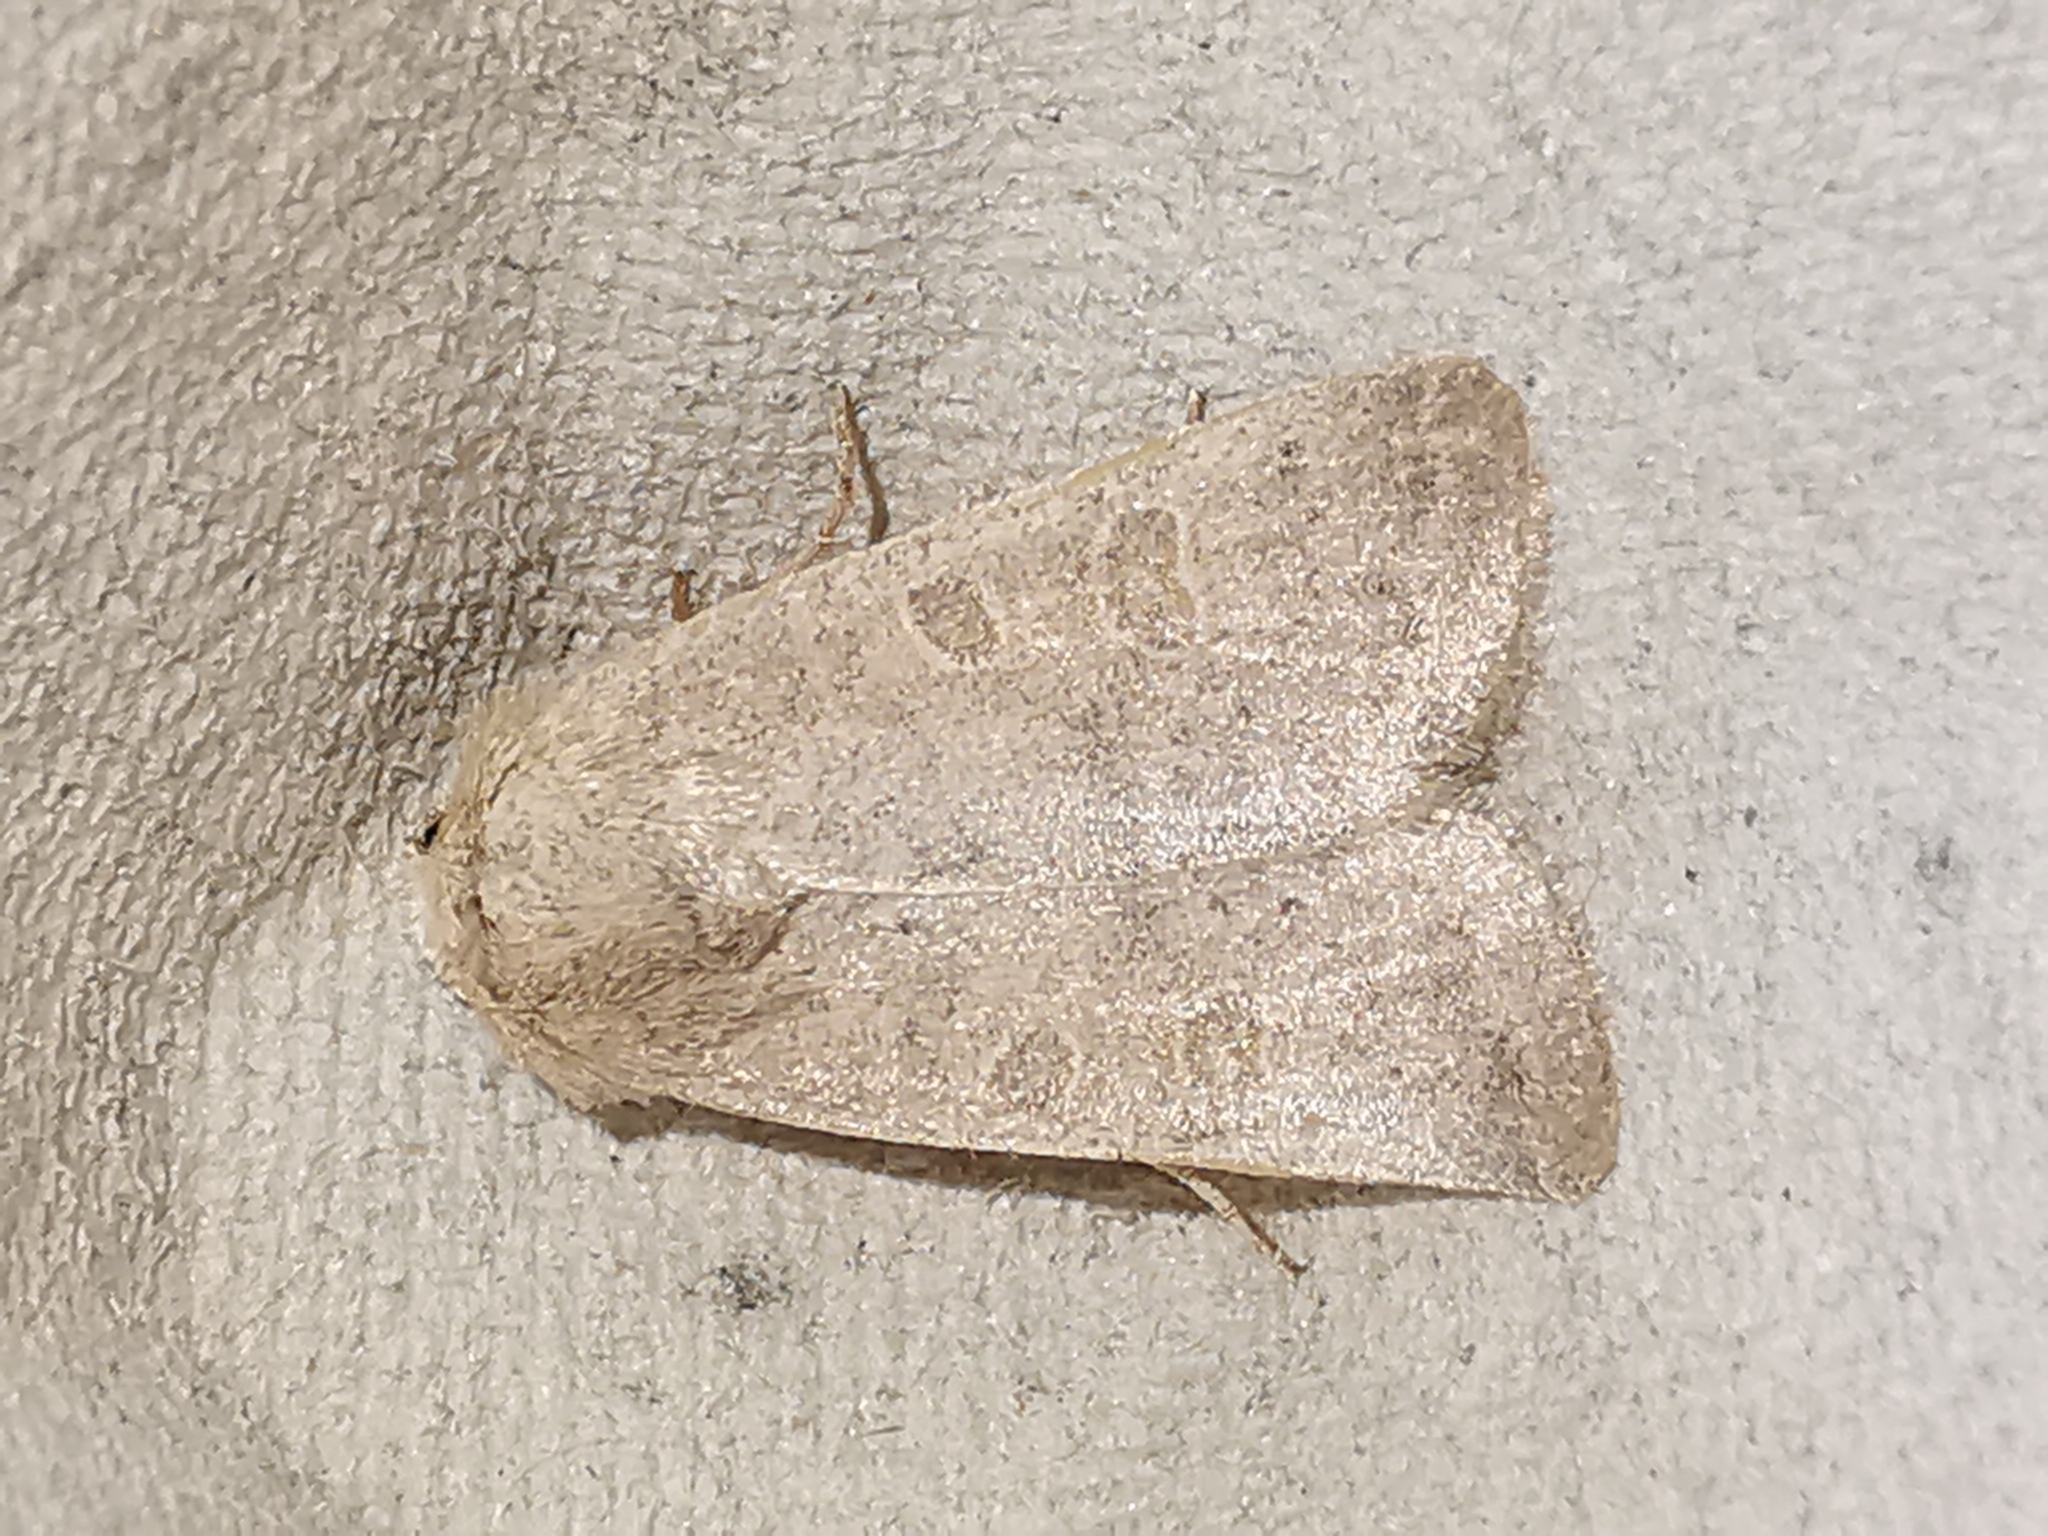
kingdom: Animalia
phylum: Arthropoda
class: Insecta
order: Lepidoptera
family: Noctuidae
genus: Hoplodrina
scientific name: Hoplodrina ambigua
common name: Vine's rustic
